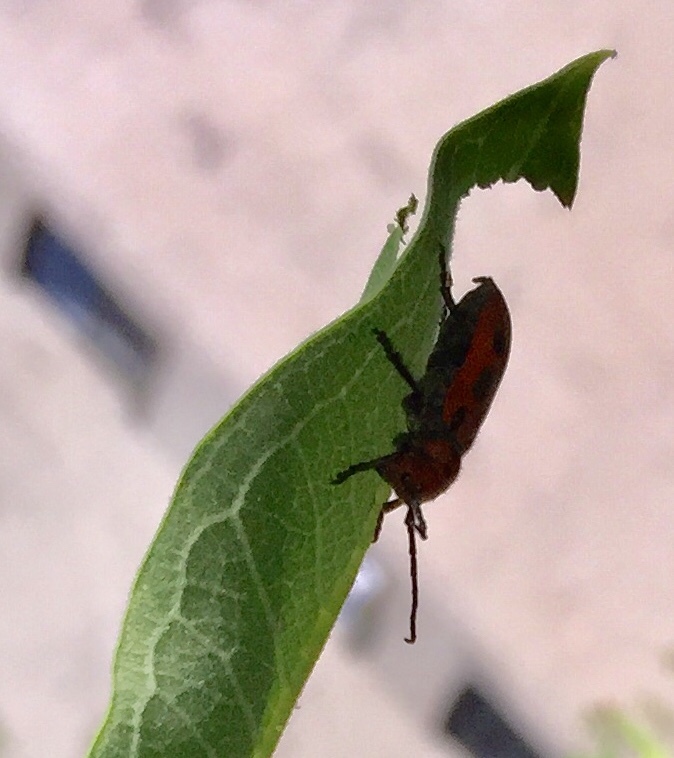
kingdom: Animalia
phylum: Arthropoda
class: Insecta
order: Coleoptera
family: Cerambycidae
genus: Tetraopes
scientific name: Tetraopes tetrophthalmus
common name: Red milkweed beetle
